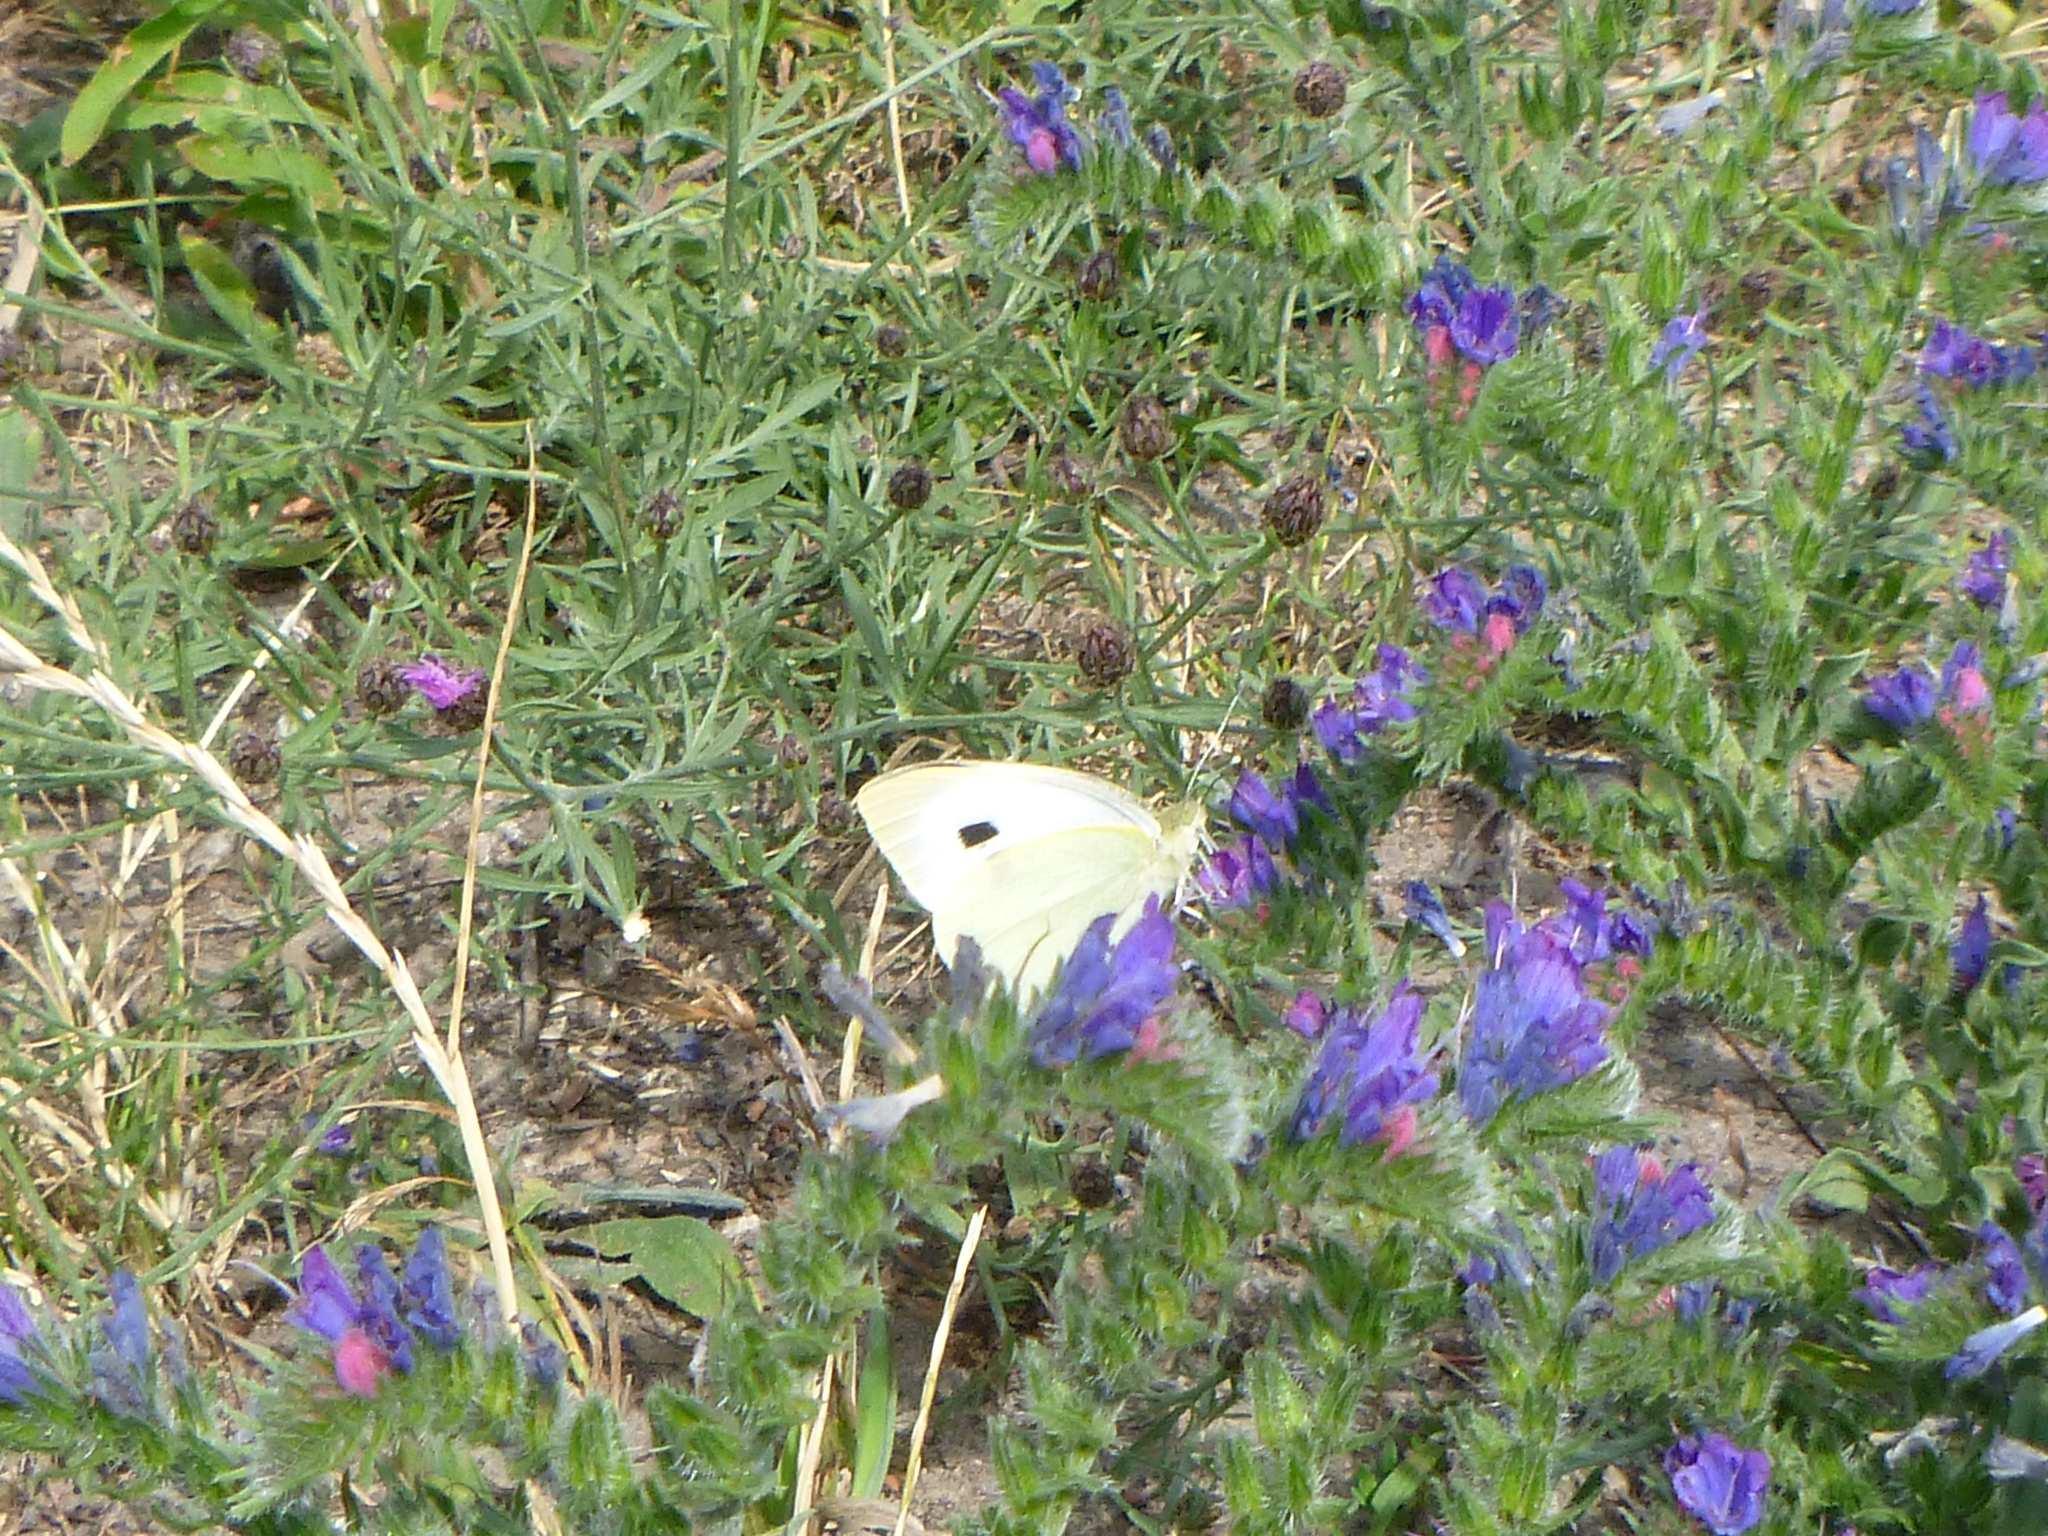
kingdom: Animalia
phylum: Arthropoda
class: Insecta
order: Lepidoptera
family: Pieridae
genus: Pieris
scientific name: Pieris brassicae
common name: Large white
